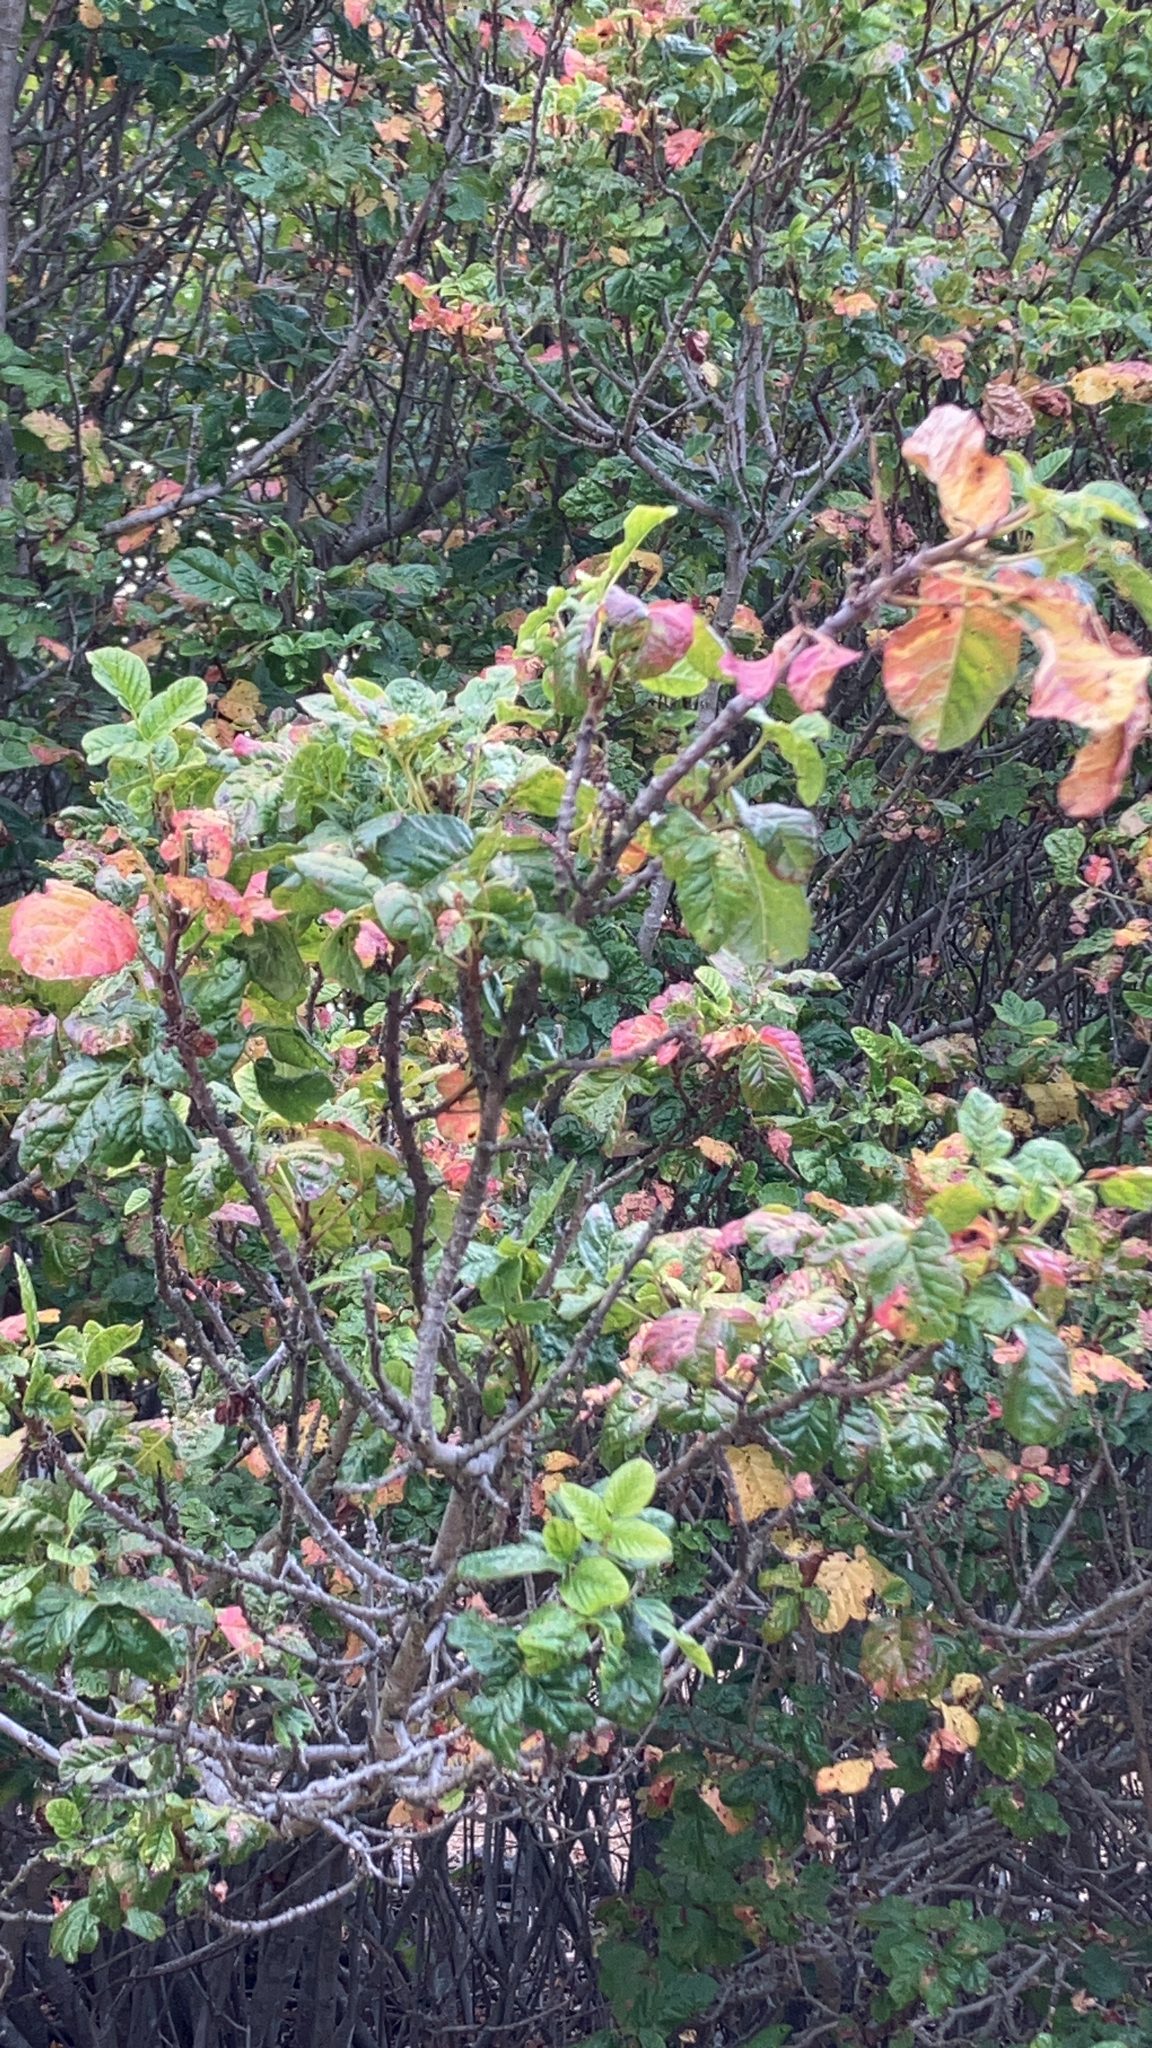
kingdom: Plantae
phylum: Tracheophyta
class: Magnoliopsida
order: Sapindales
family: Anacardiaceae
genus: Toxicodendron
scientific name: Toxicodendron diversilobum
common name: Pacific poison-oak
